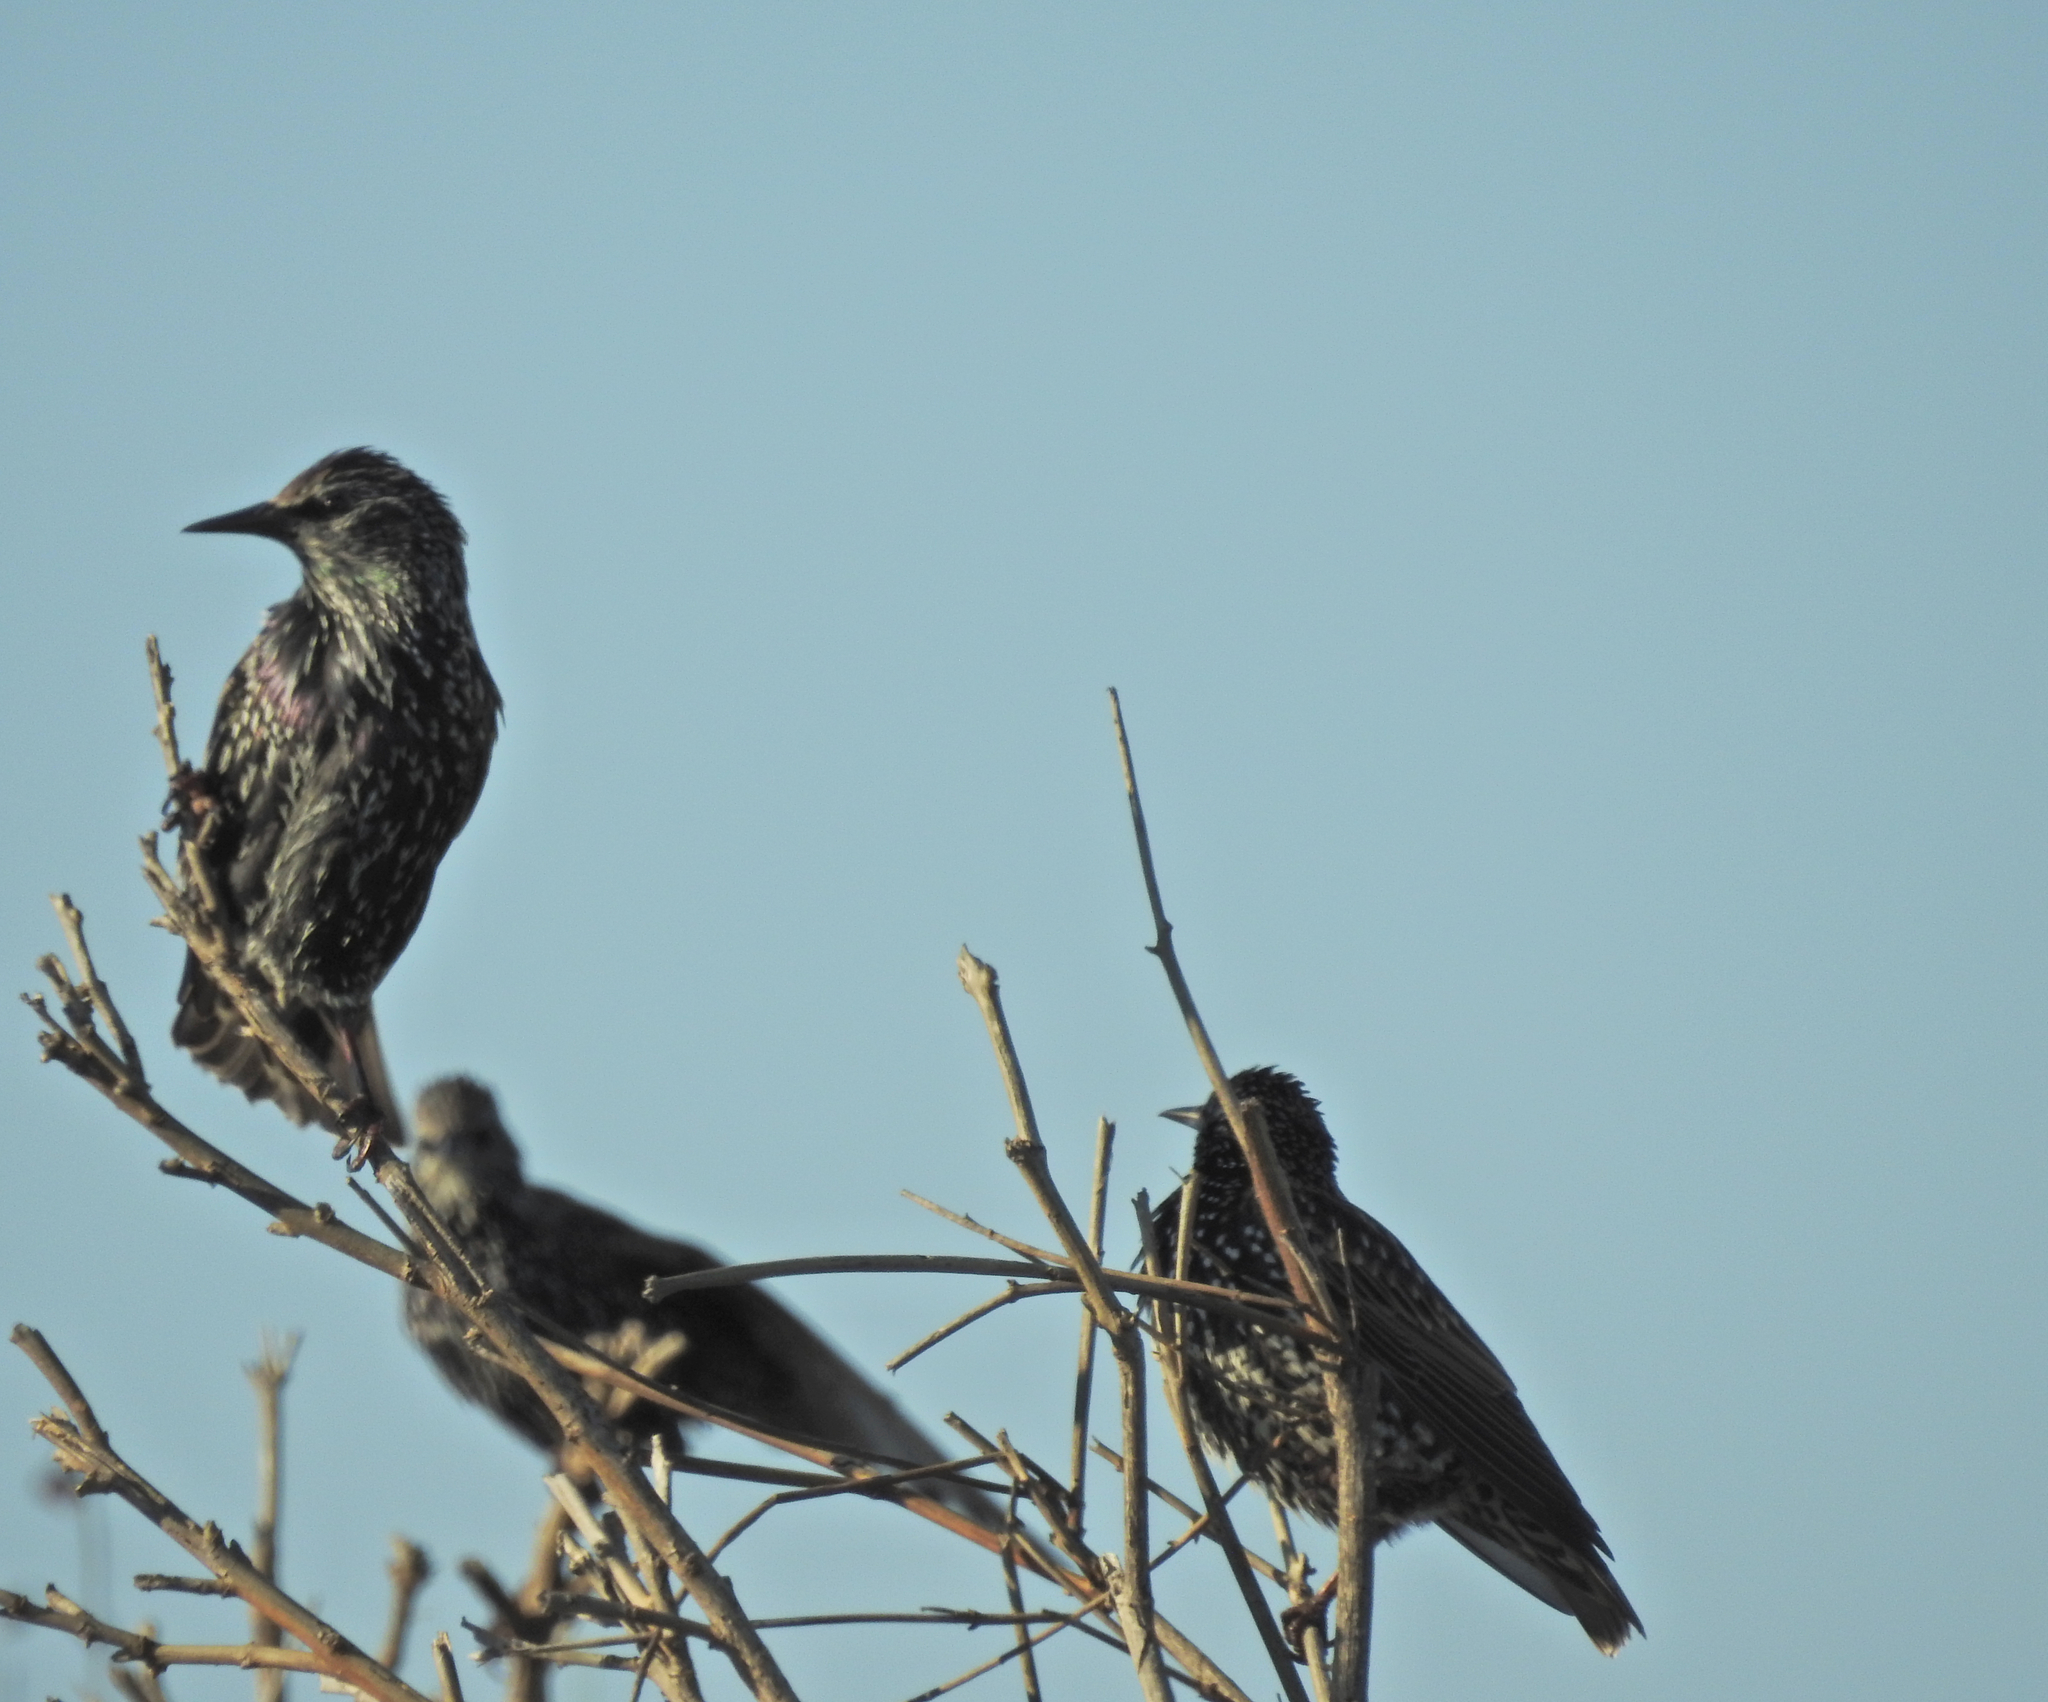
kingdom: Animalia
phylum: Chordata
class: Aves
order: Passeriformes
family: Sturnidae
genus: Sturnus
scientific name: Sturnus vulgaris
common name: Common starling
